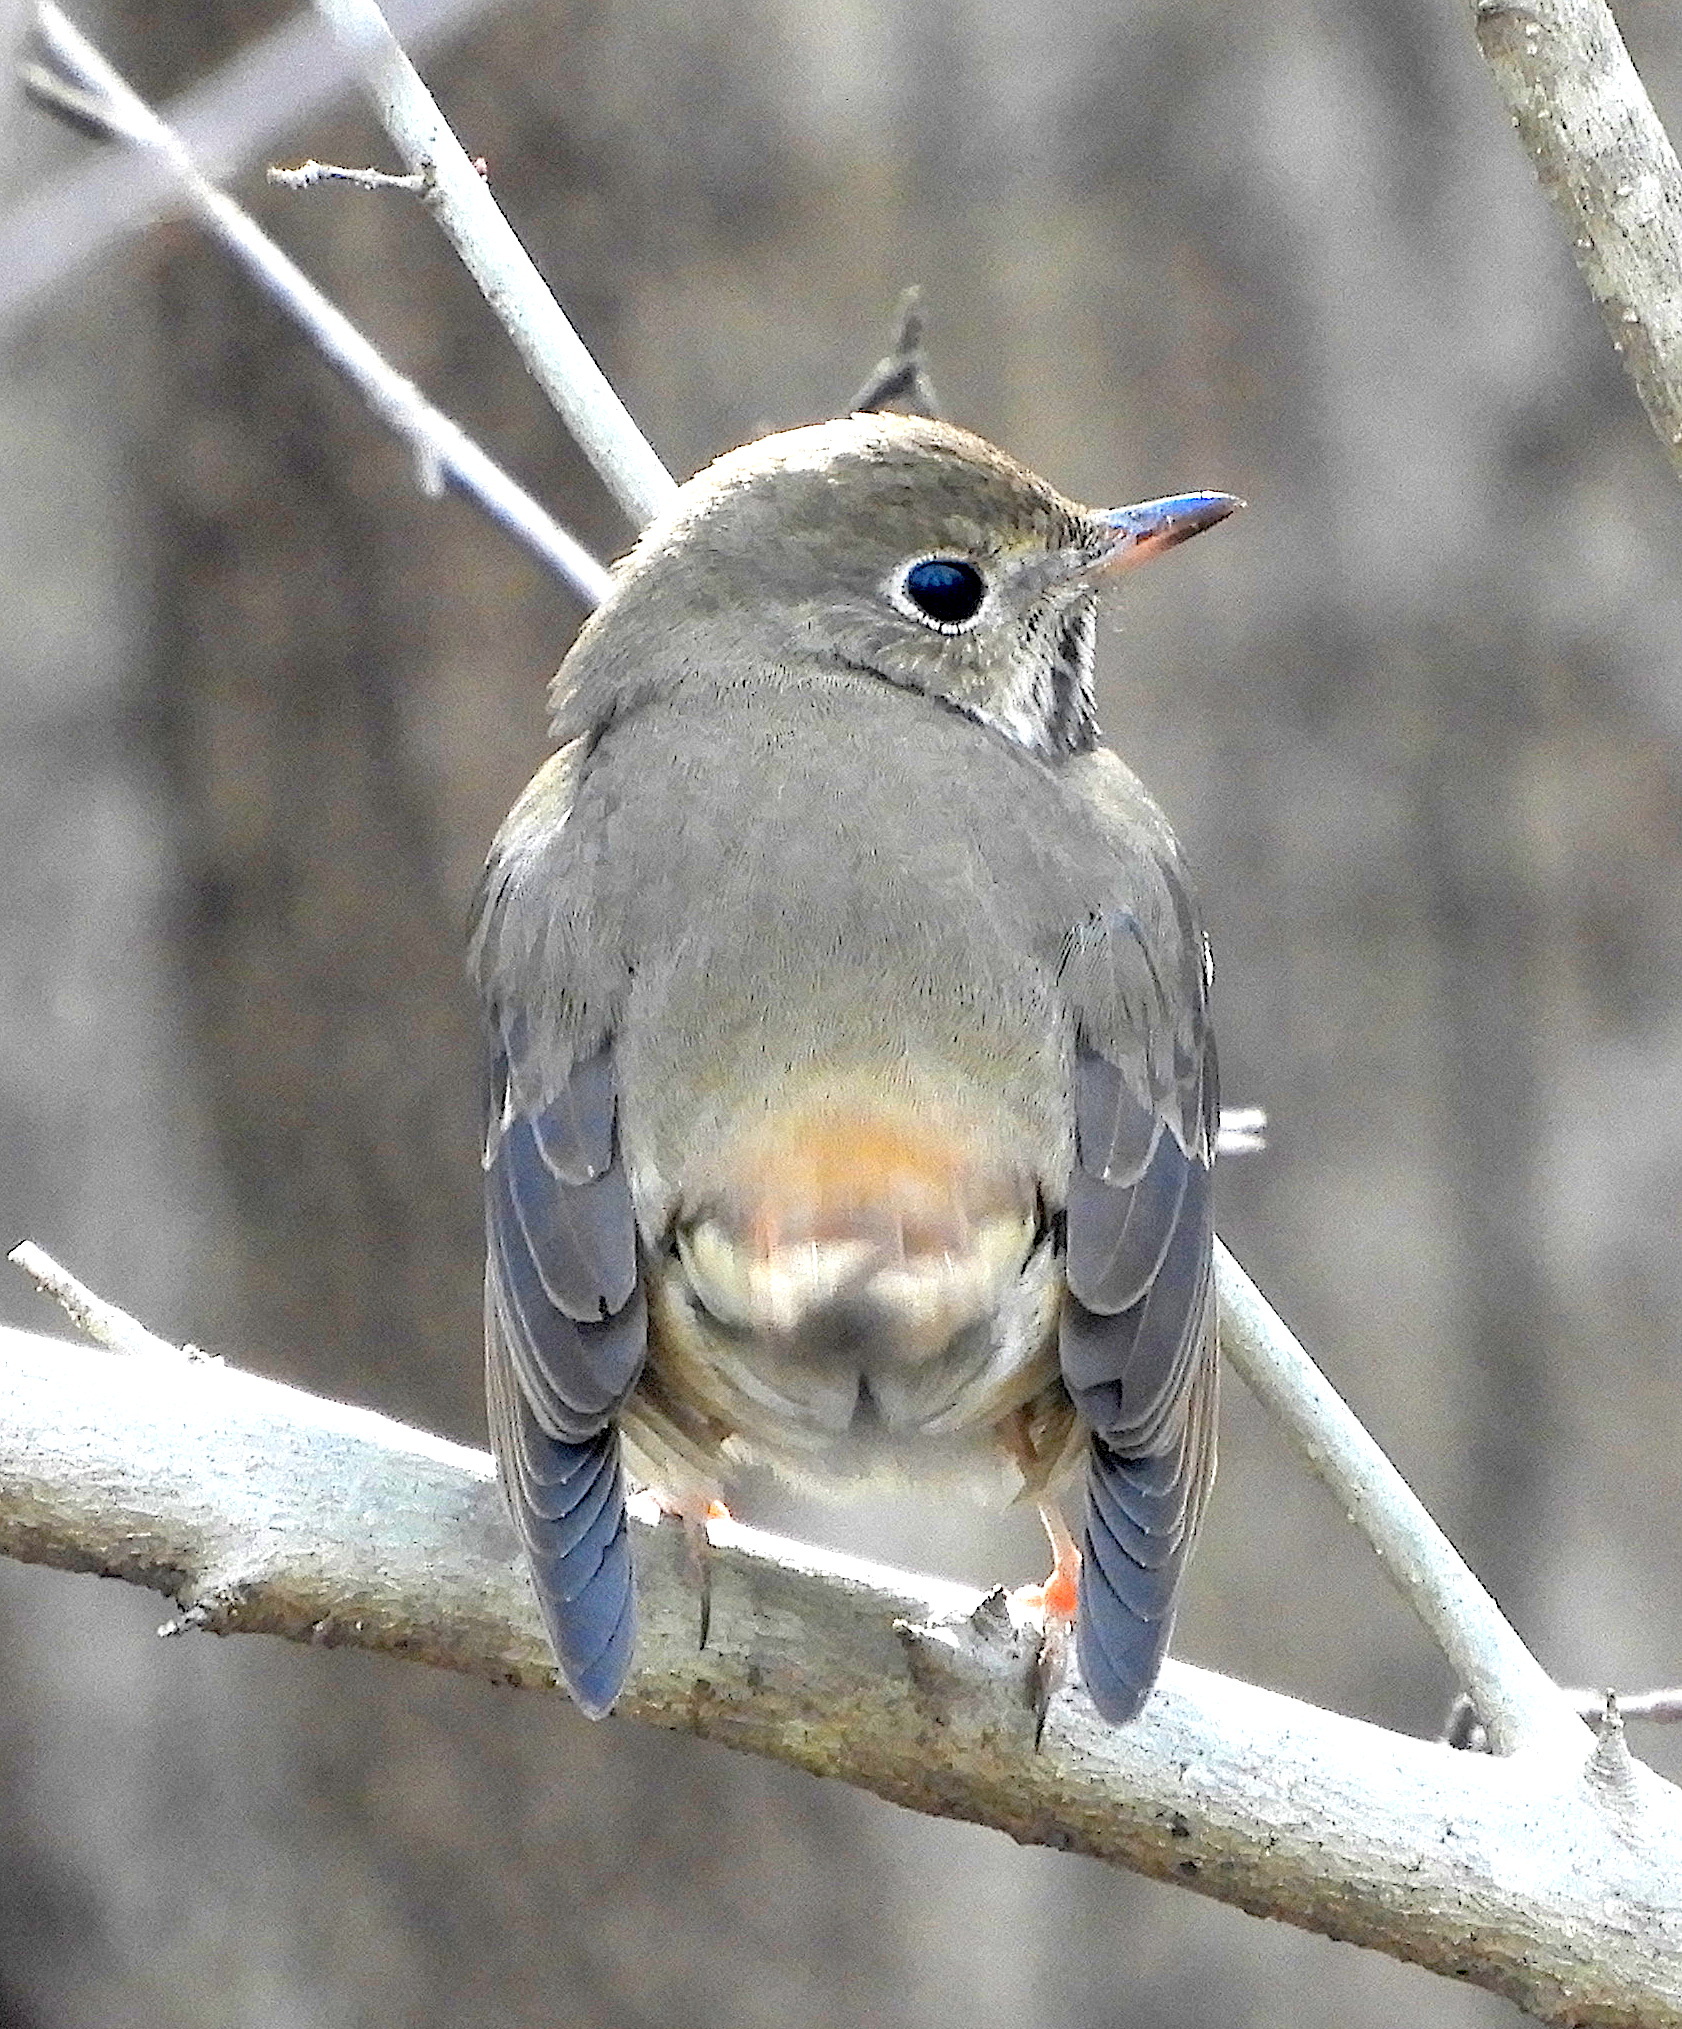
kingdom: Animalia
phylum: Chordata
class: Aves
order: Passeriformes
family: Turdidae
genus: Catharus
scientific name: Catharus guttatus
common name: Hermit thrush
